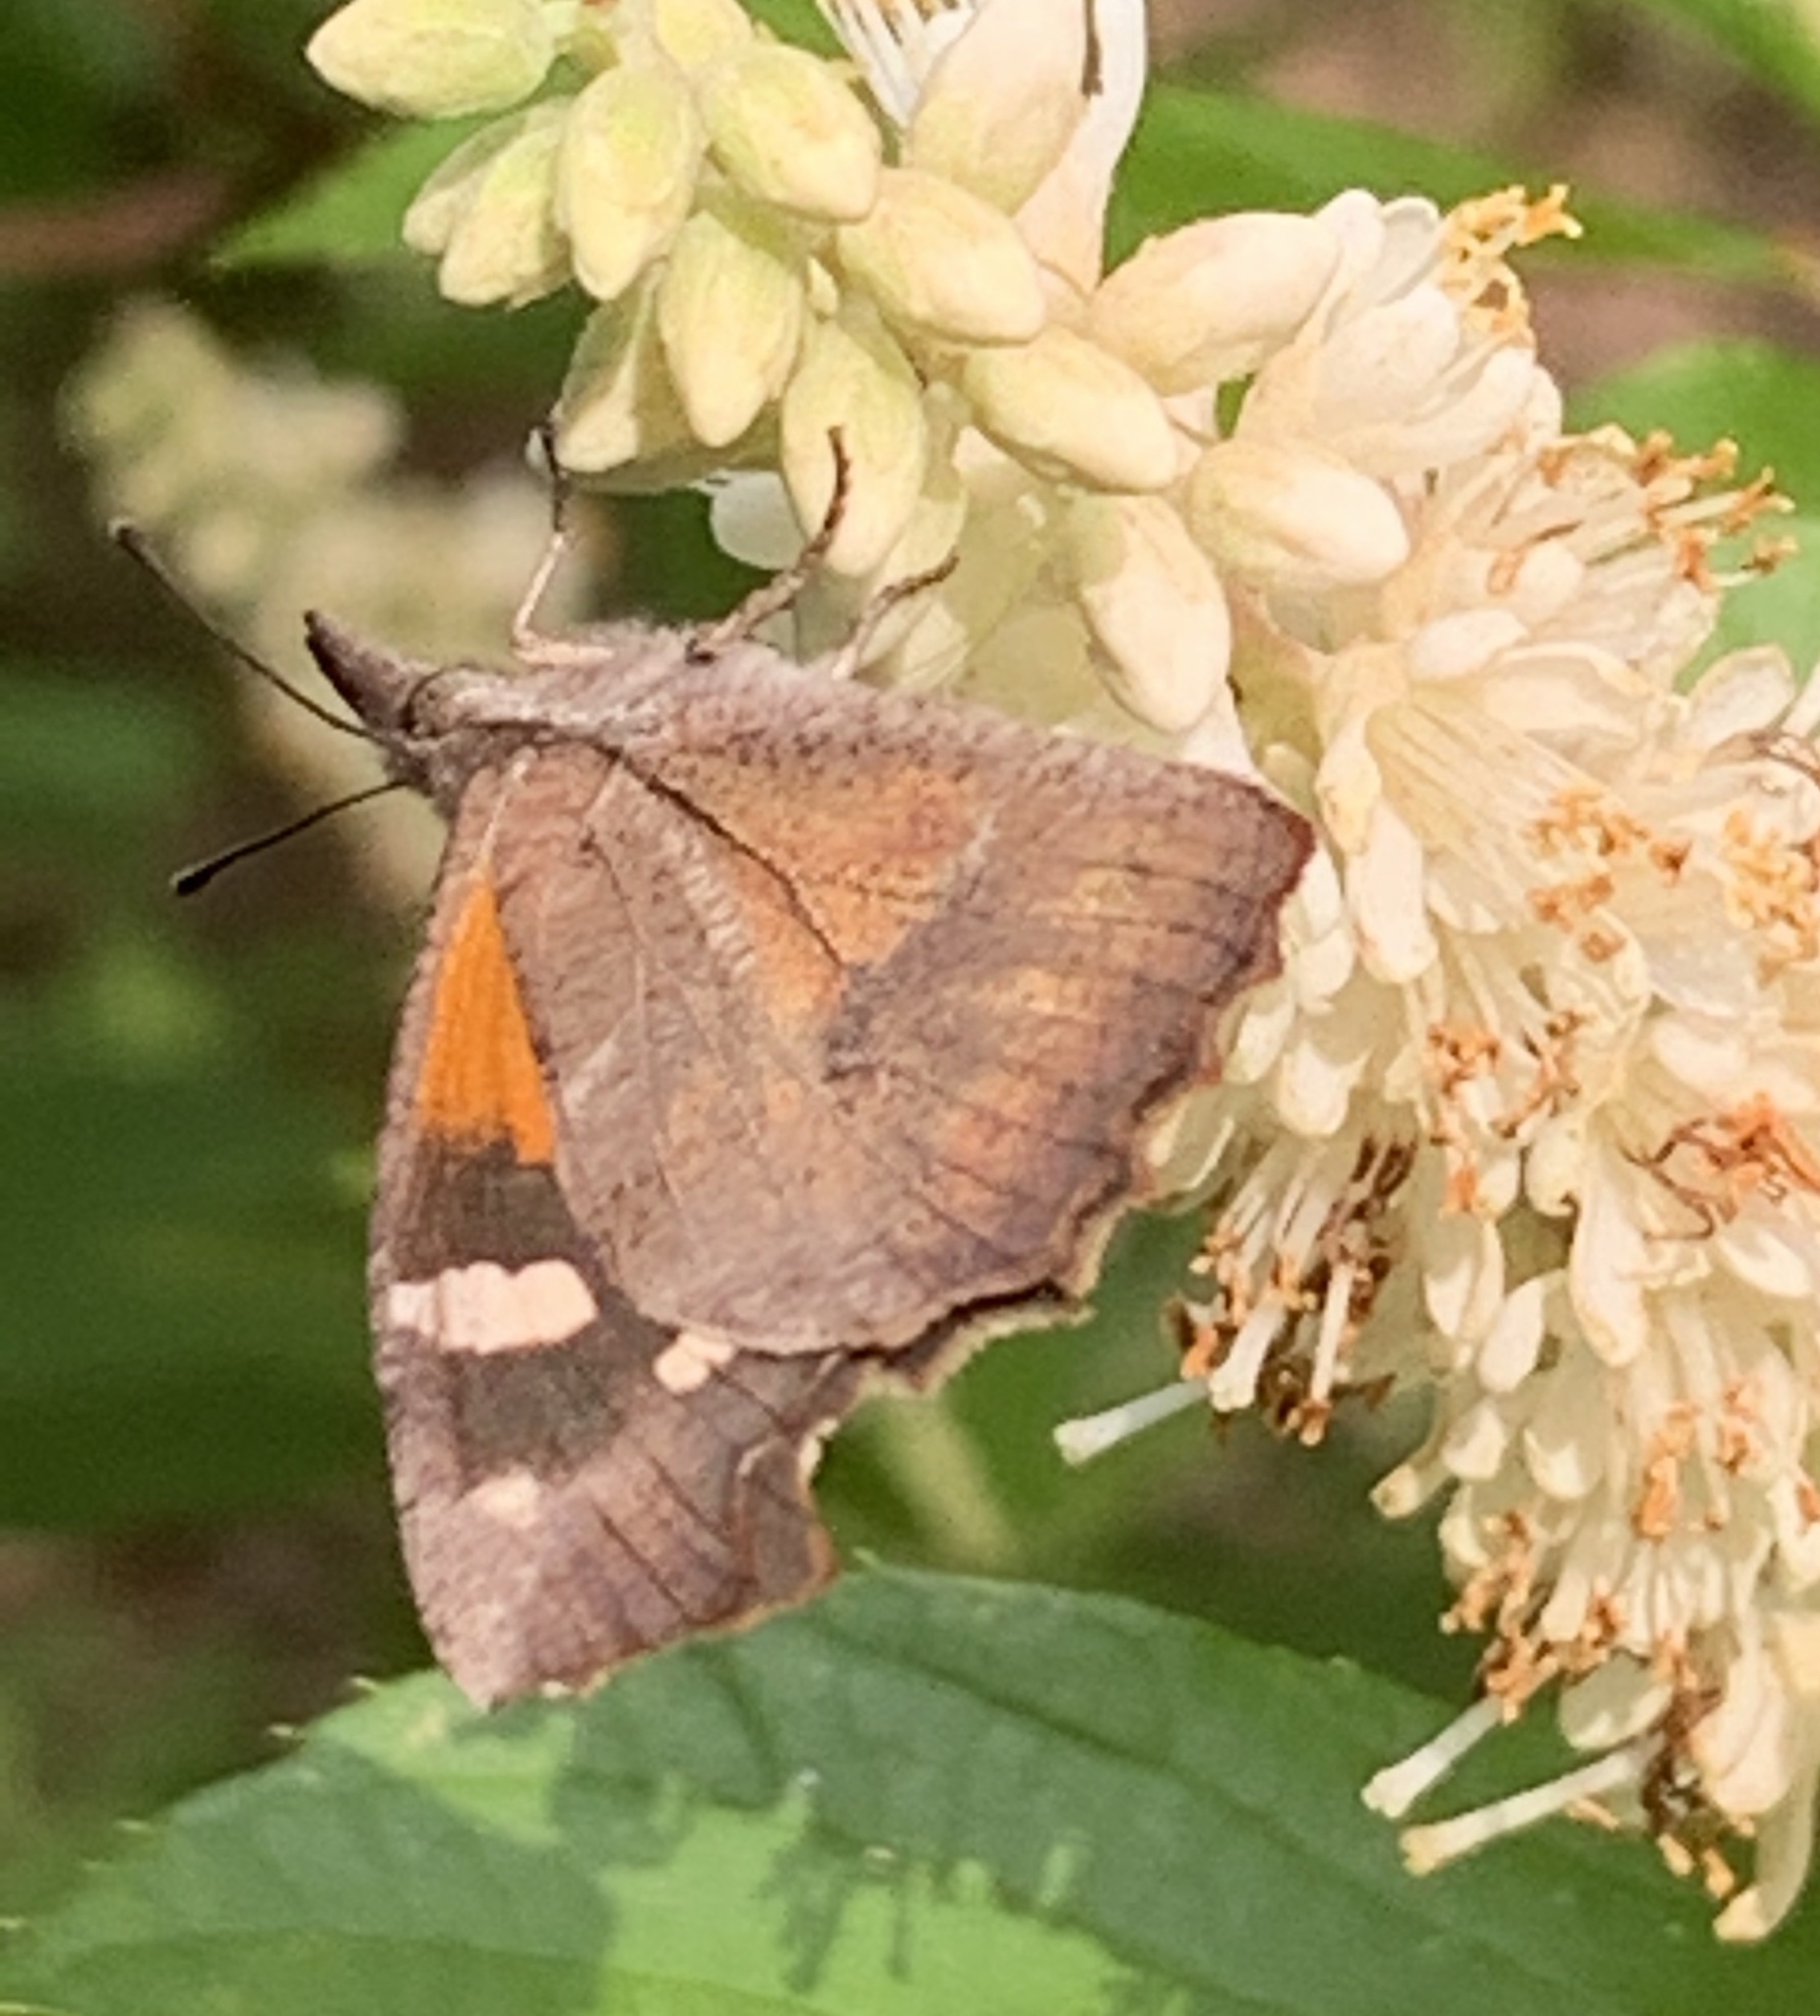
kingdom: Animalia
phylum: Arthropoda
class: Insecta
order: Lepidoptera
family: Nymphalidae
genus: Libytheana
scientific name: Libytheana carinenta
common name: American snout
